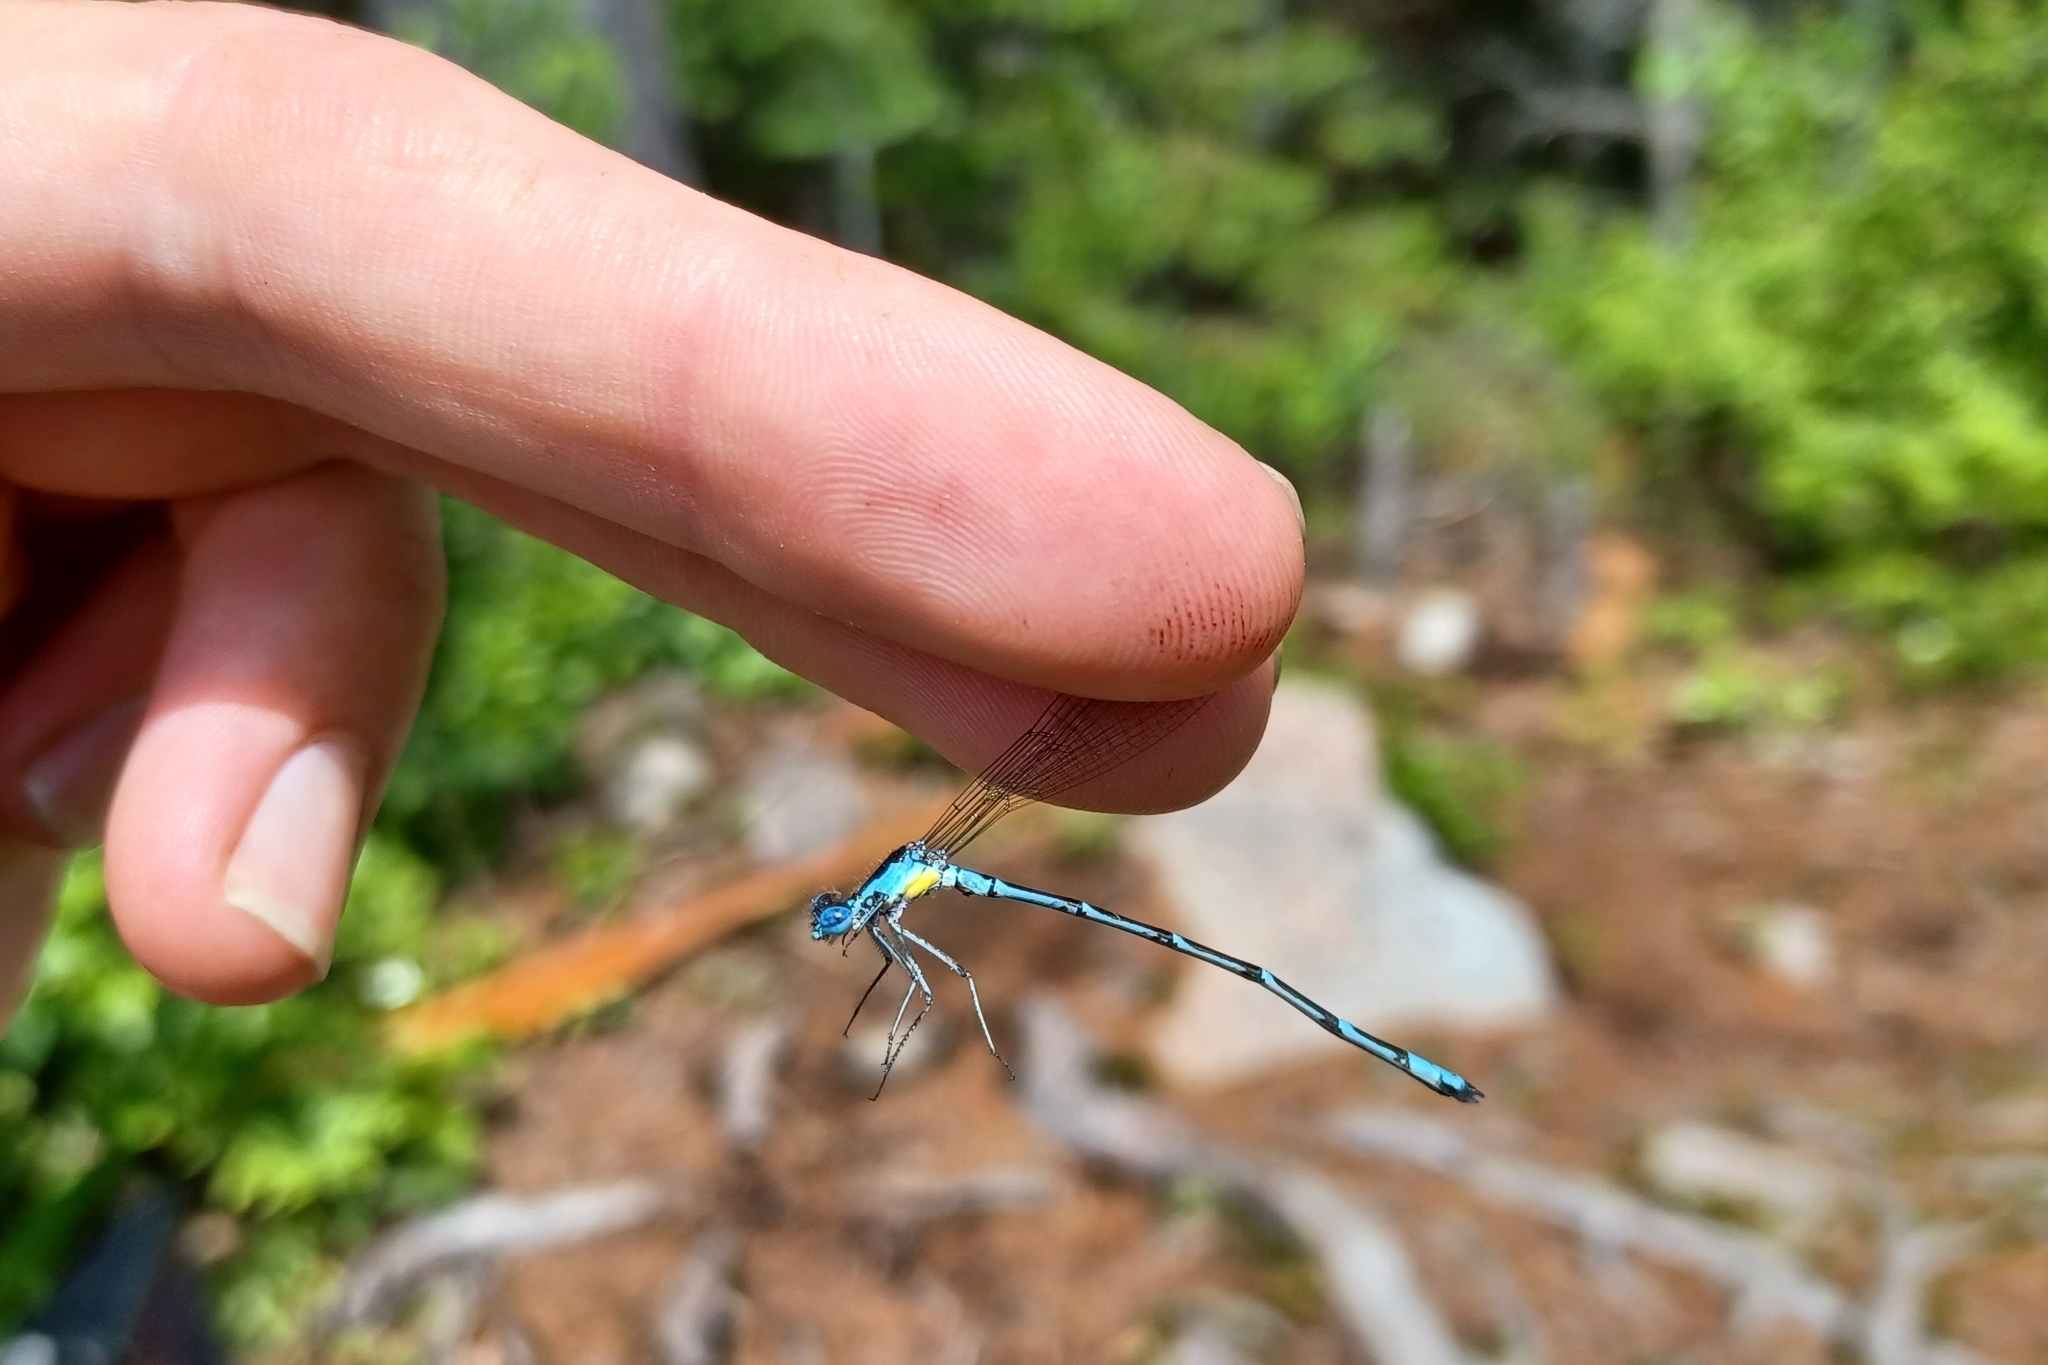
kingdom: Animalia
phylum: Arthropoda
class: Insecta
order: Odonata
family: Coenagrionidae
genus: Chromagrion
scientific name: Chromagrion conditum
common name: Aurora damsel
